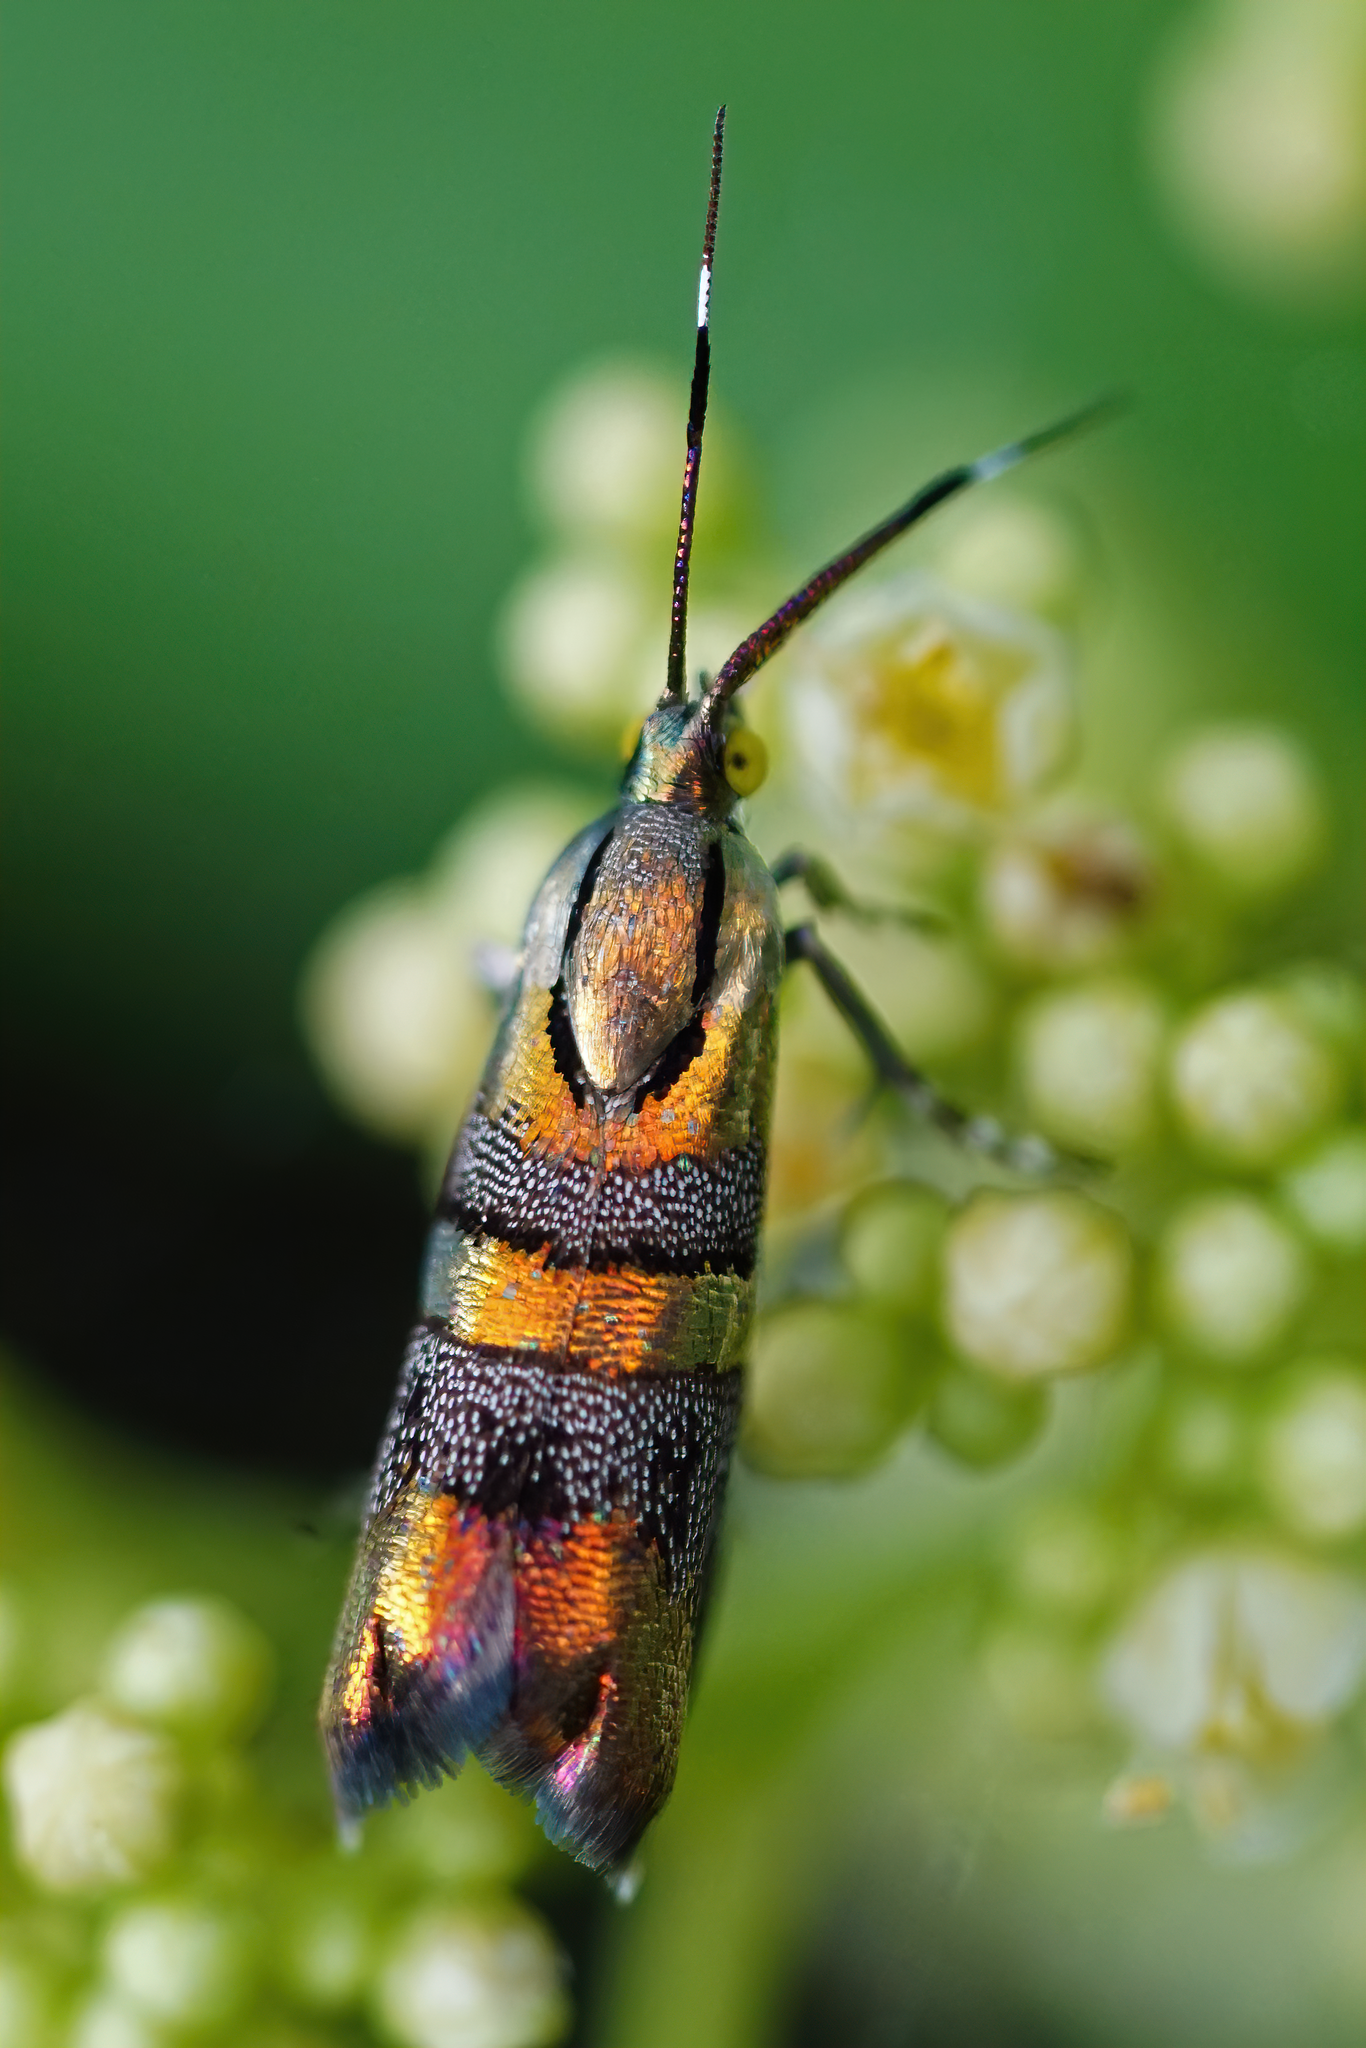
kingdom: Animalia
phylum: Arthropoda
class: Insecta
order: Lepidoptera
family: Choreutidae
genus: Tortyra
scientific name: Tortyra slossonia
